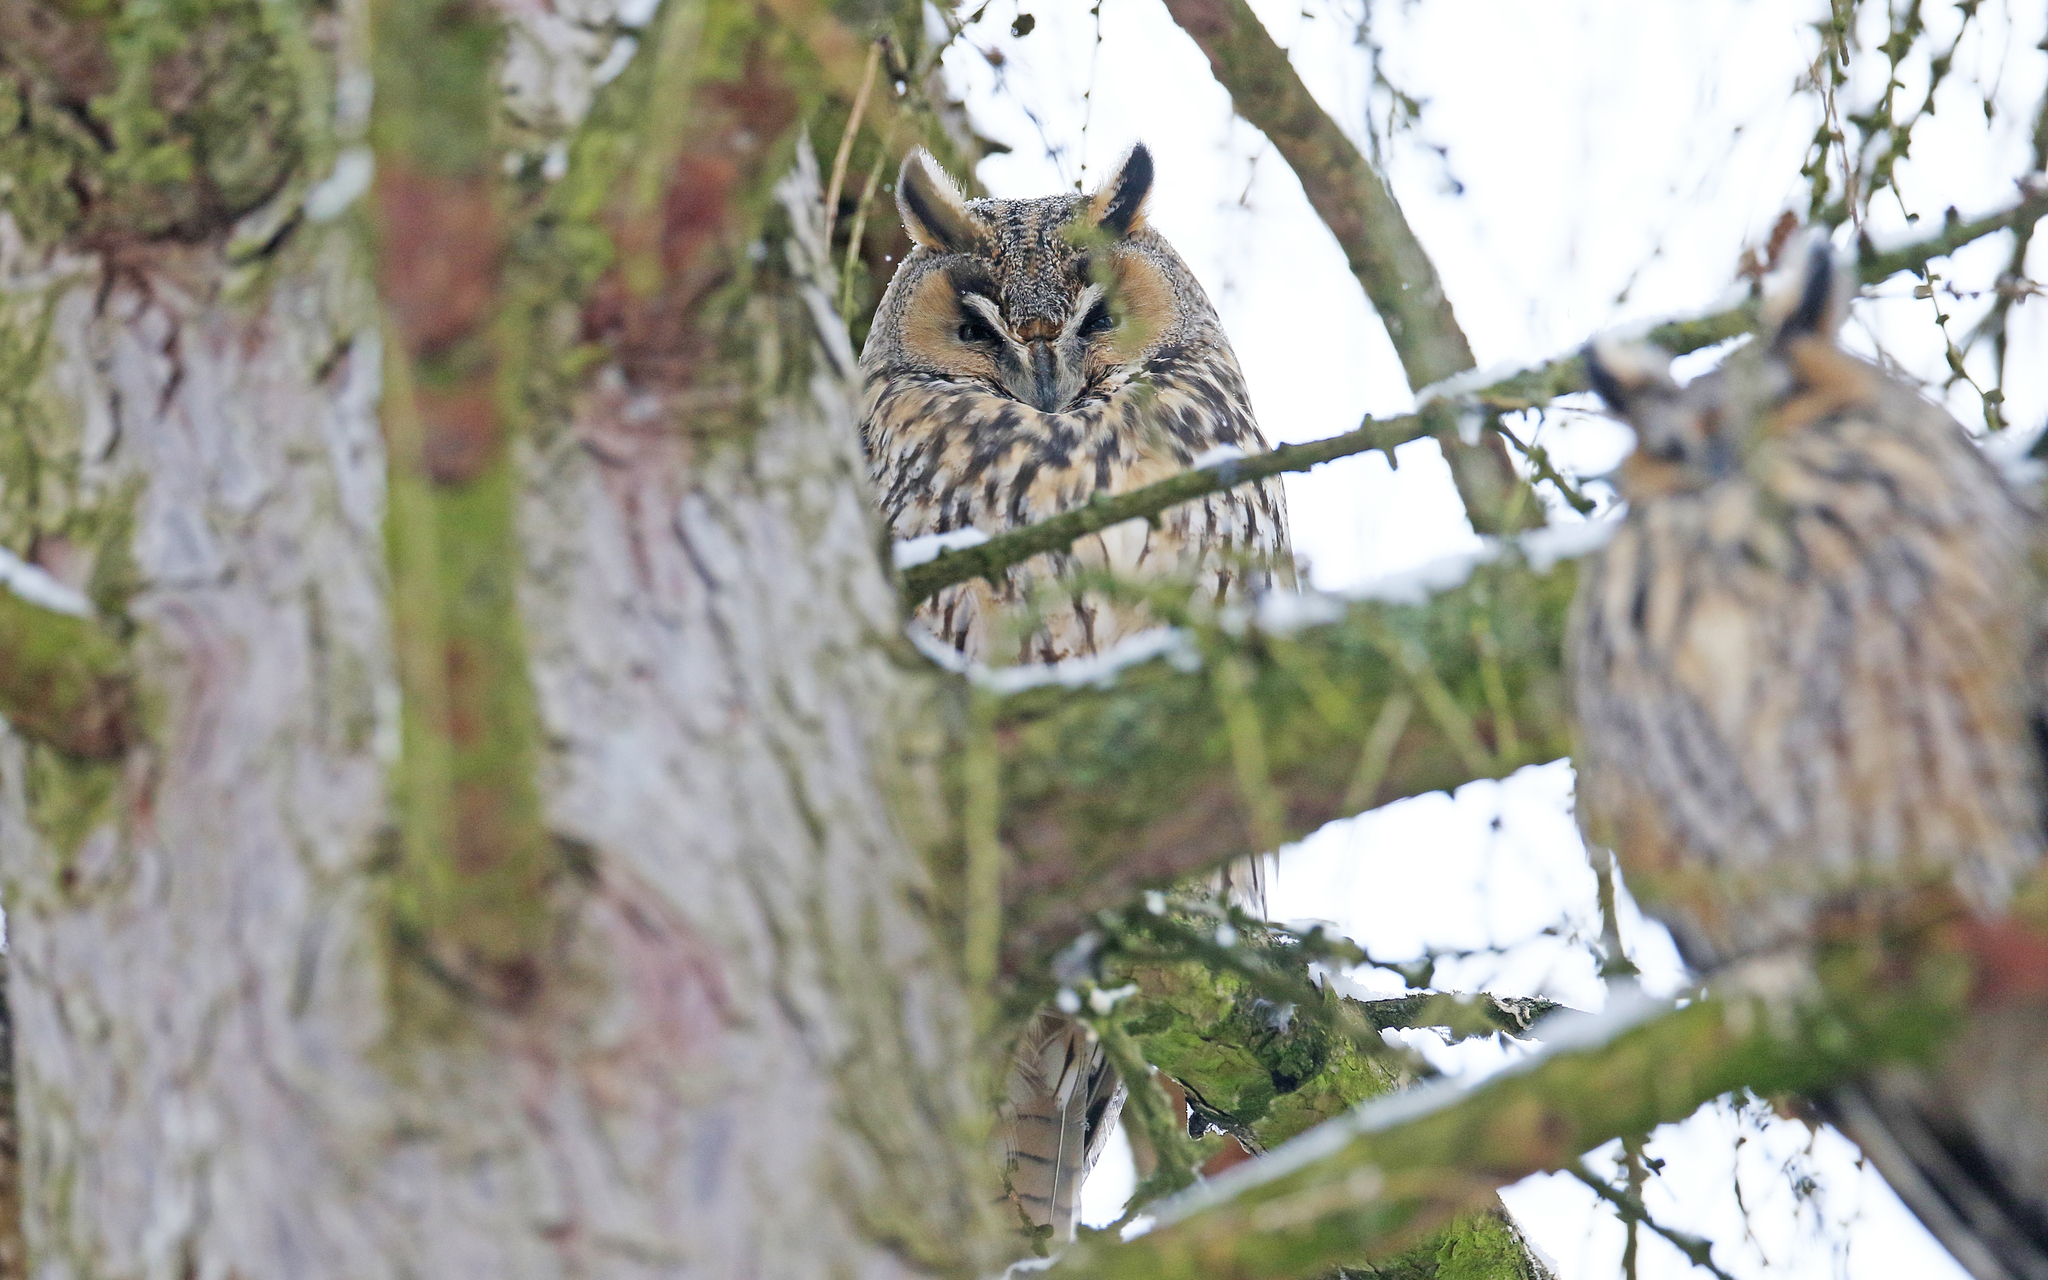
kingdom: Animalia
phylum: Chordata
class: Aves
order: Strigiformes
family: Strigidae
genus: Asio
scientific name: Asio otus
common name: Long-eared owl
